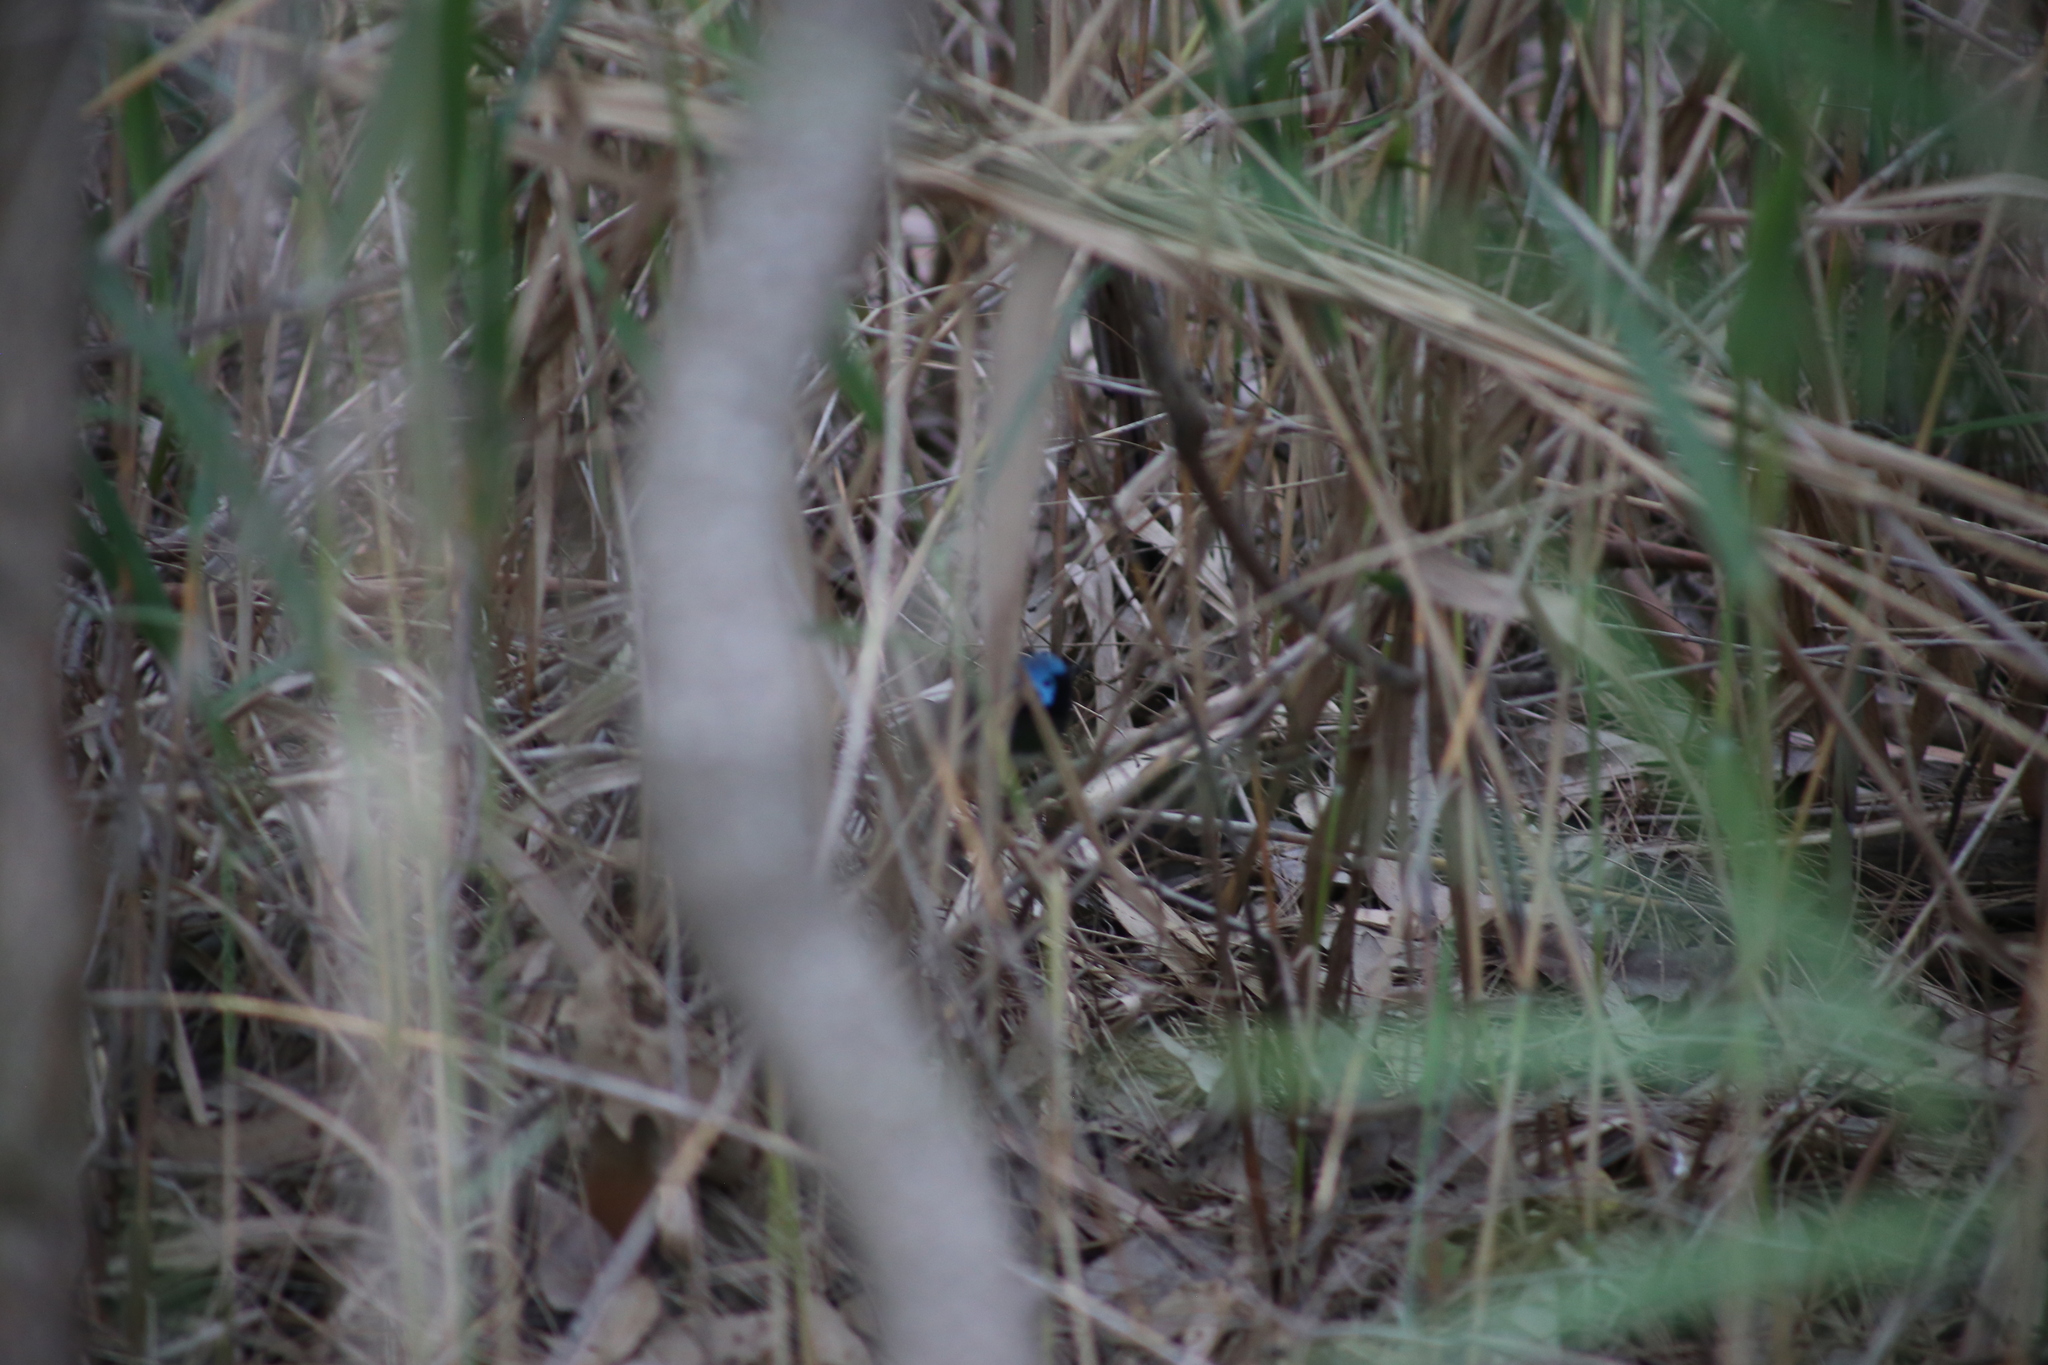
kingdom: Animalia
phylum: Chordata
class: Aves
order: Passeriformes
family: Maluridae
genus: Malurus
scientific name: Malurus lamberti
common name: Variegated fairywren
